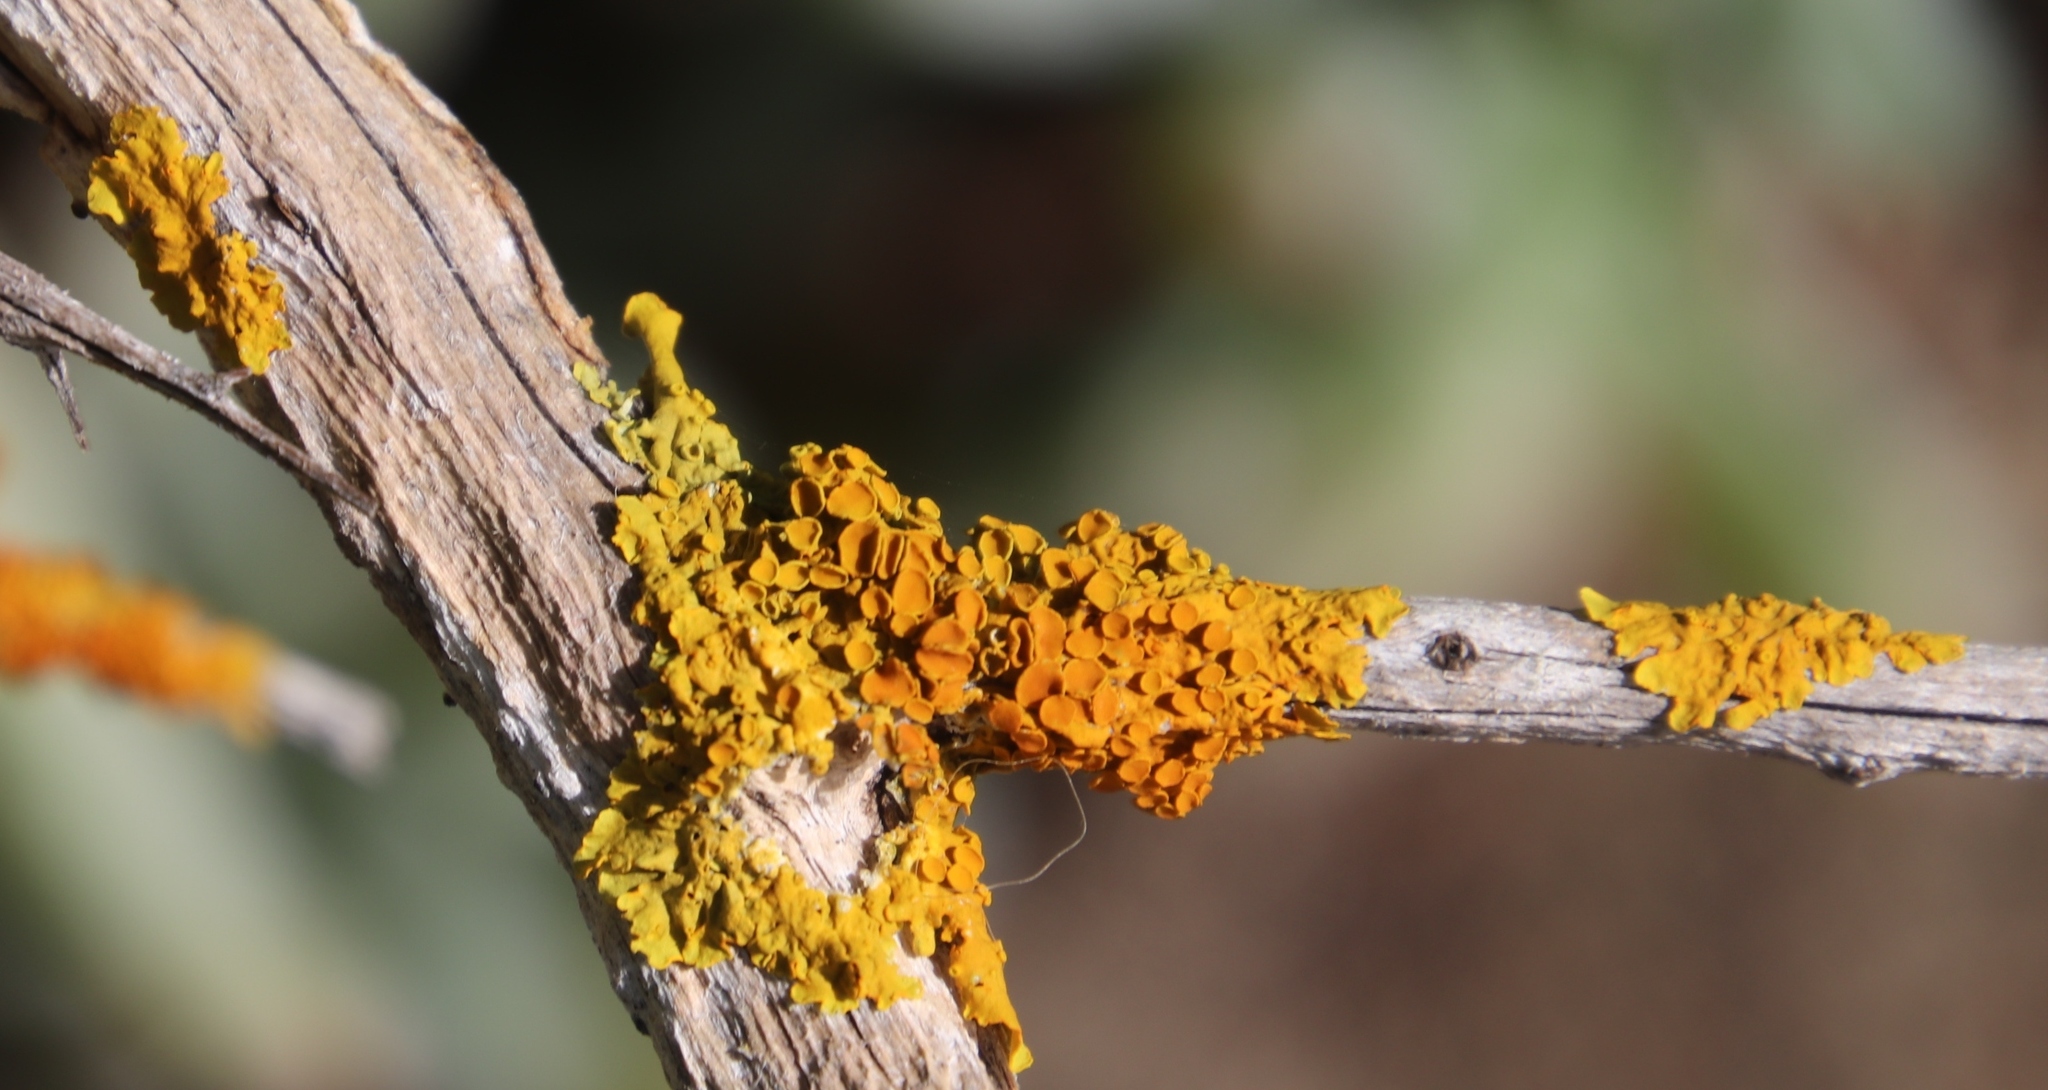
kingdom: Fungi
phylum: Ascomycota
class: Lecanoromycetes
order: Teloschistales
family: Teloschistaceae
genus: Xanthoria
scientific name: Xanthoria parietina
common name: Common orange lichen
